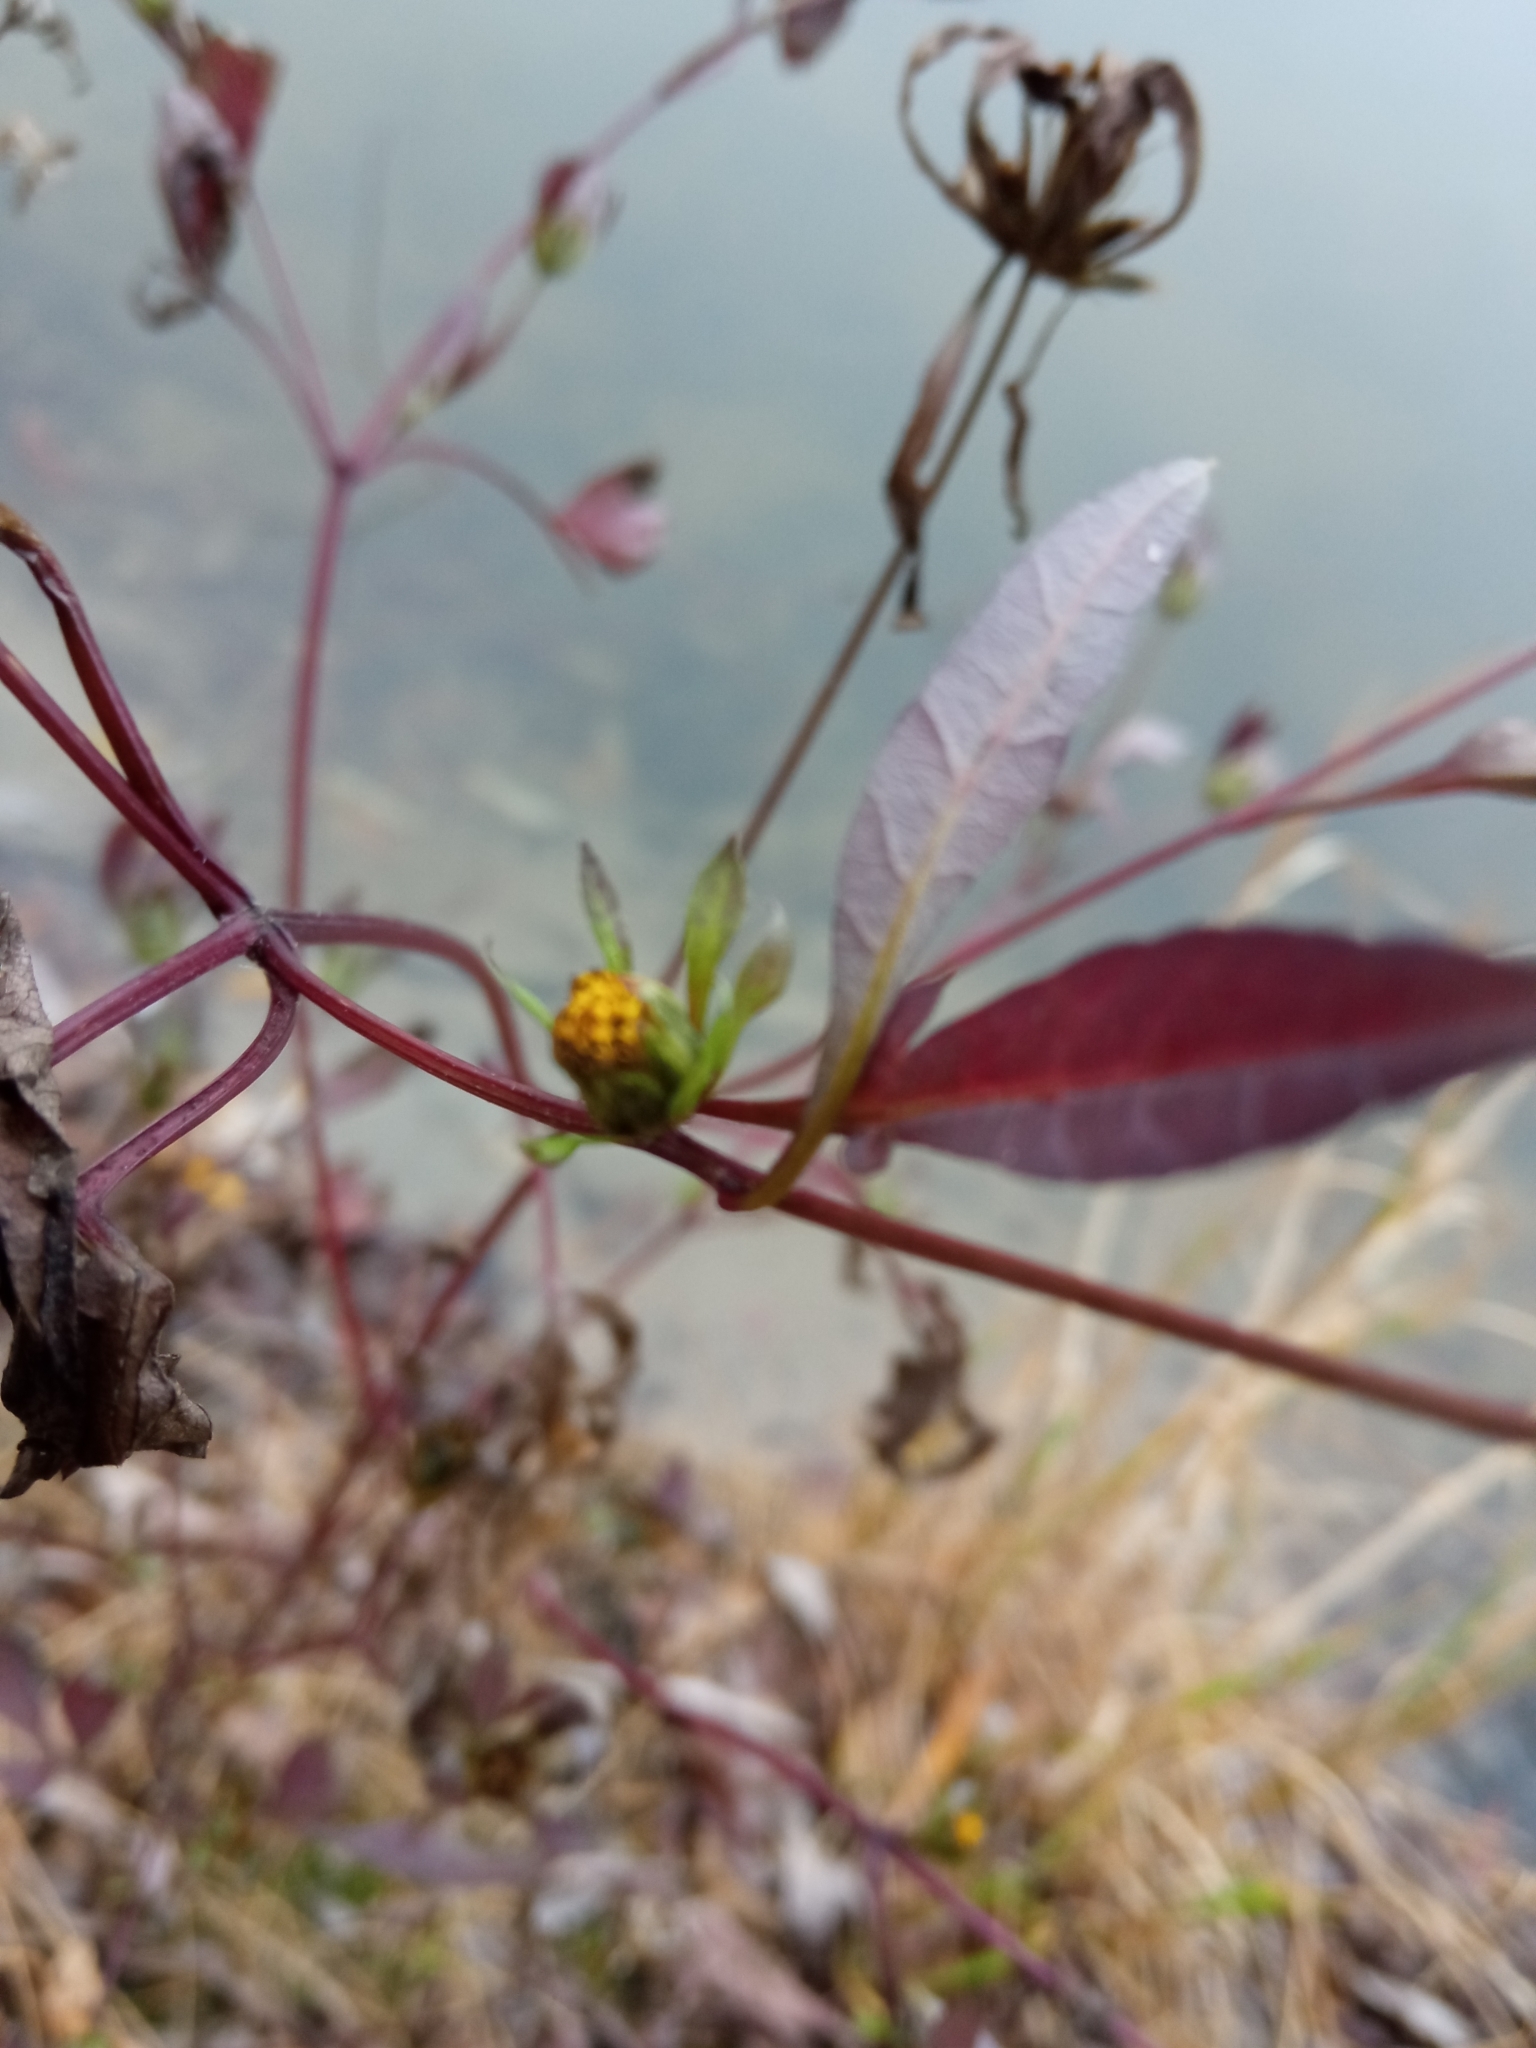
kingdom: Plantae
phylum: Tracheophyta
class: Magnoliopsida
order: Asterales
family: Asteraceae
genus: Bidens
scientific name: Bidens frondosa
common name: Beggarticks
